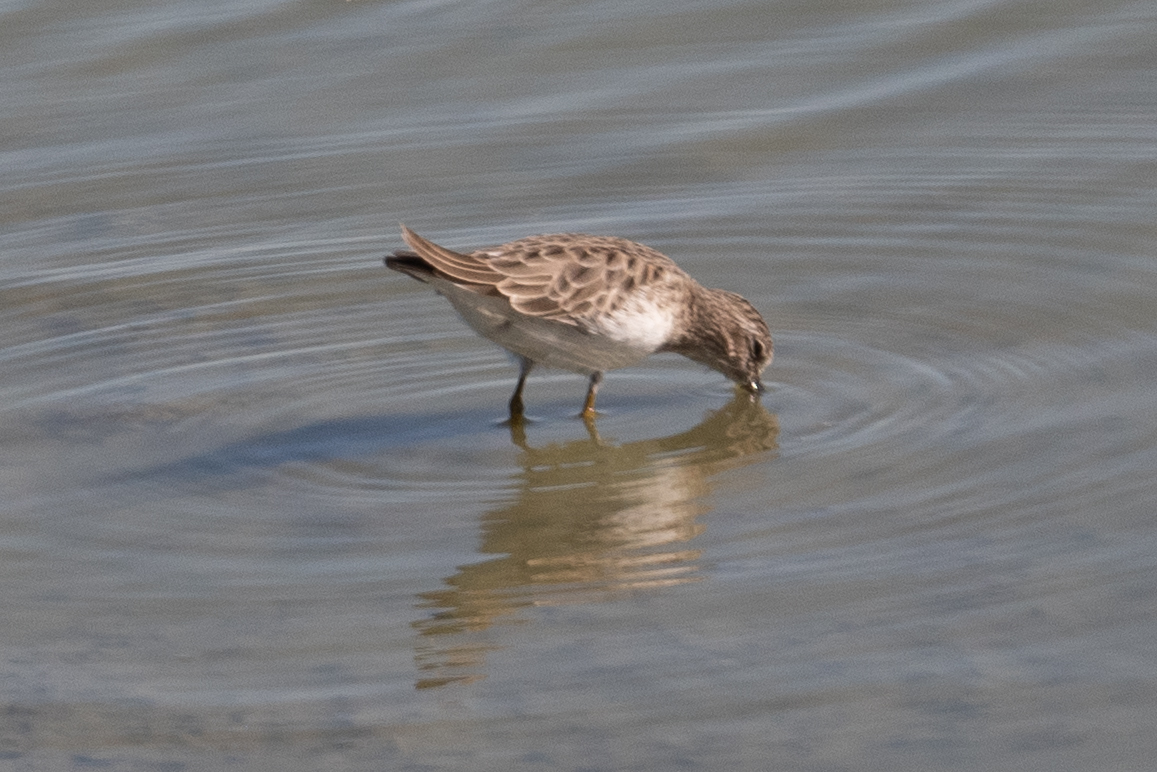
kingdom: Animalia
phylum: Chordata
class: Aves
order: Charadriiformes
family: Scolopacidae
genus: Calidris
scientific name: Calidris minutilla
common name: Least sandpiper
